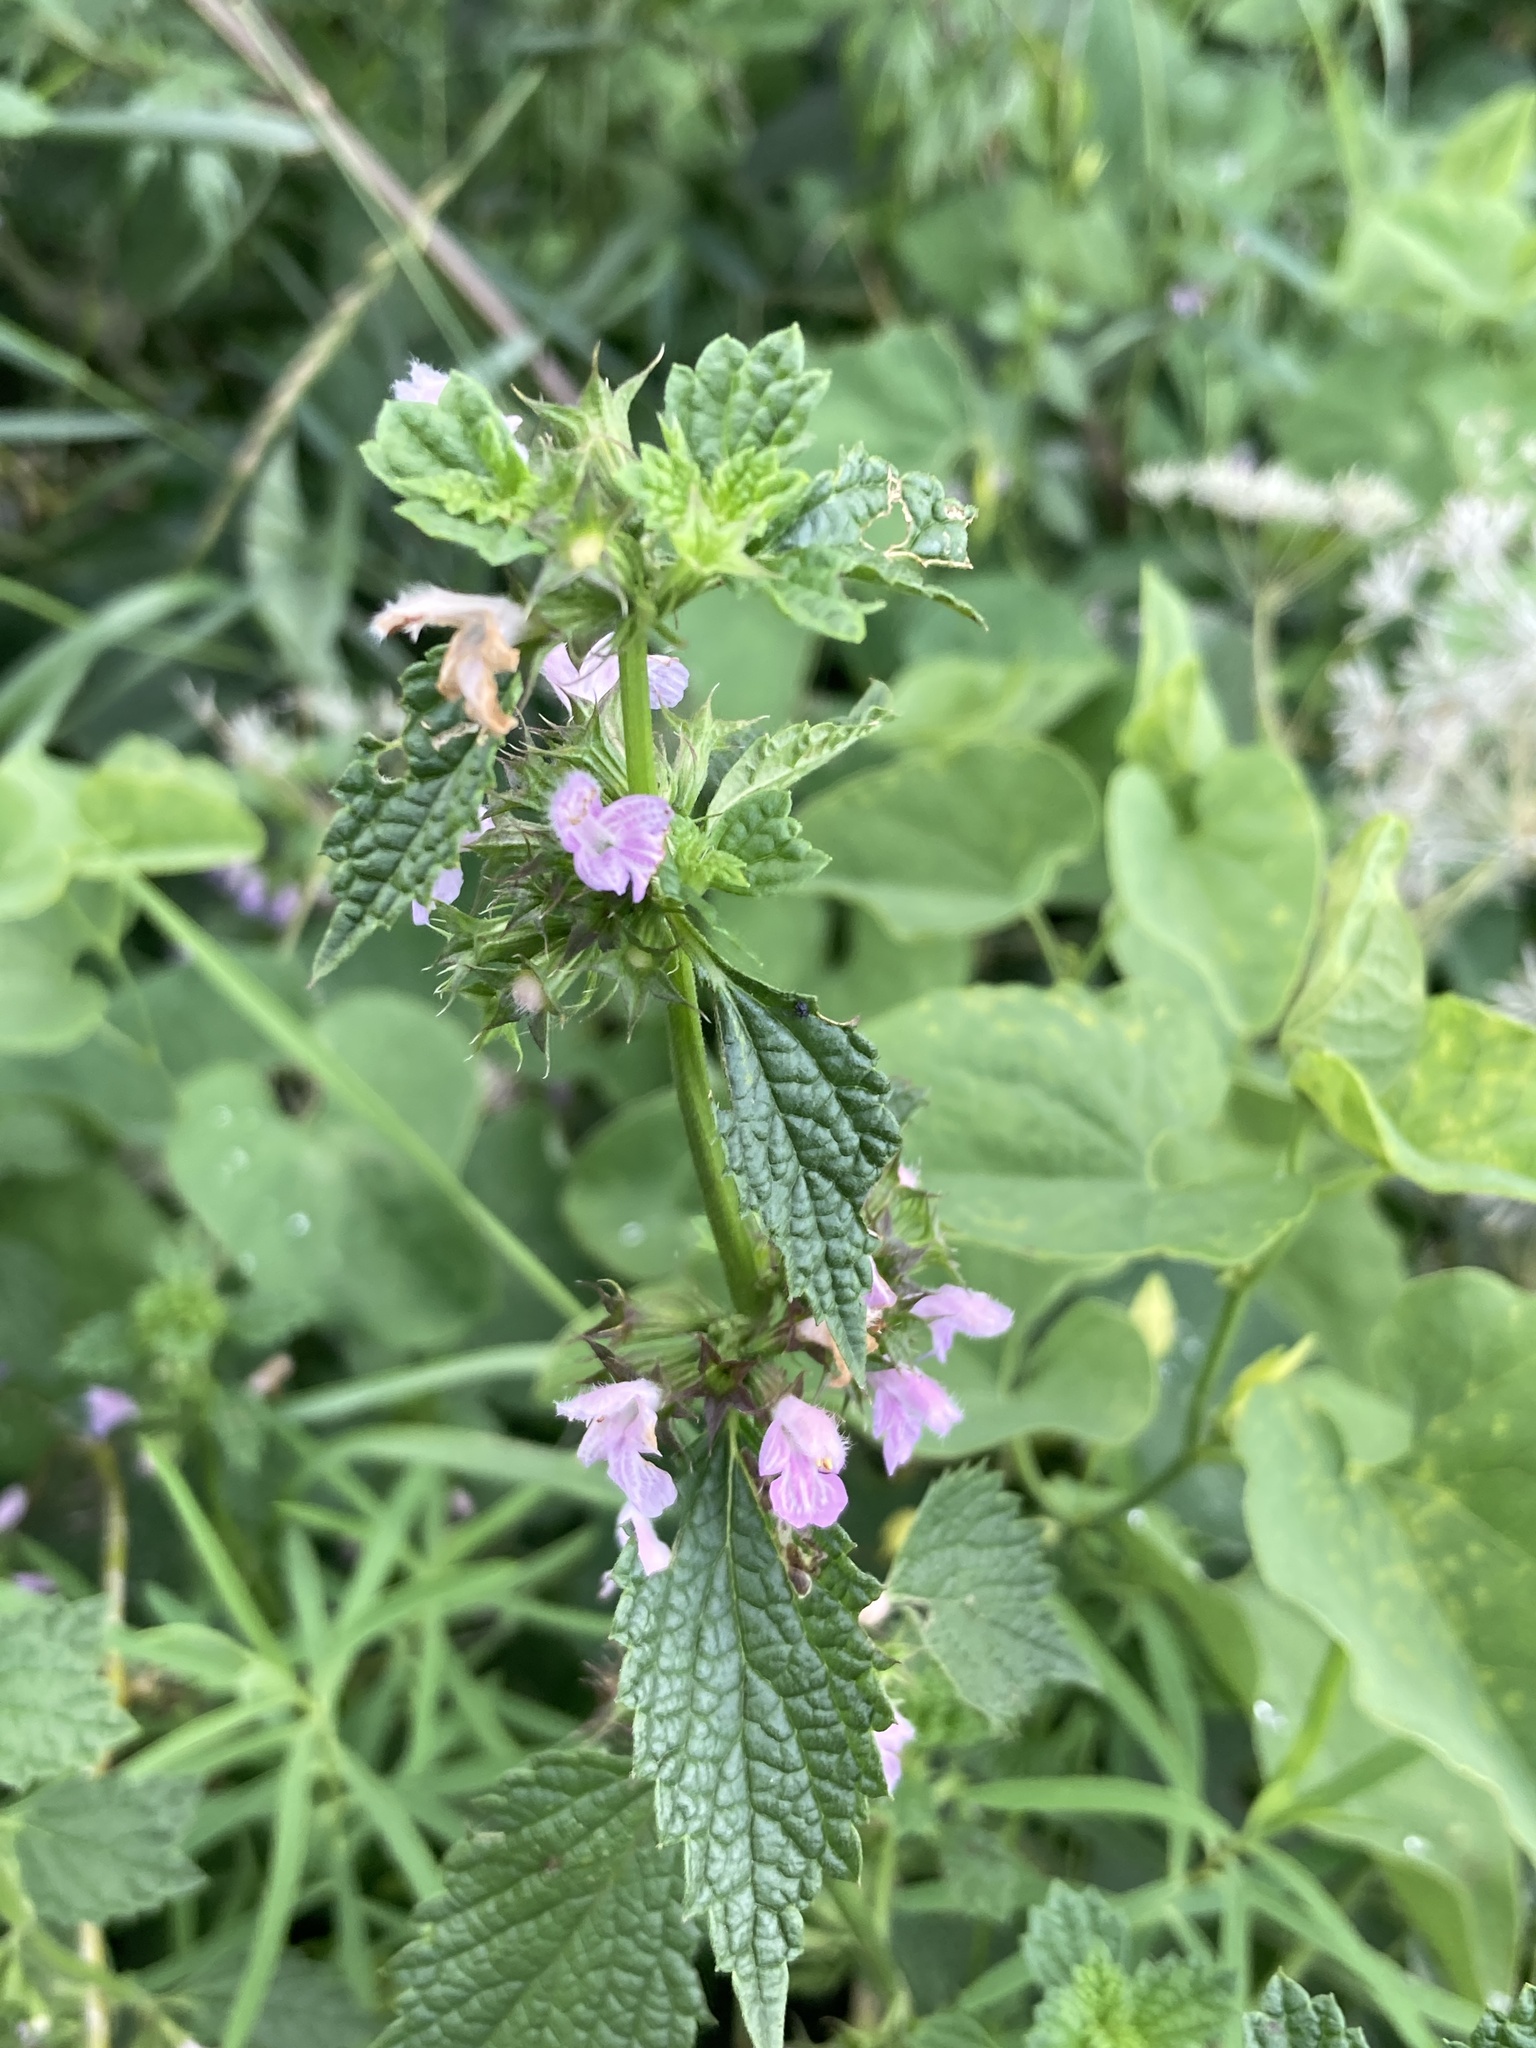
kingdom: Plantae
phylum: Tracheophyta
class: Magnoliopsida
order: Lamiales
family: Lamiaceae
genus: Ballota
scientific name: Ballota nigra
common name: Black horehound
